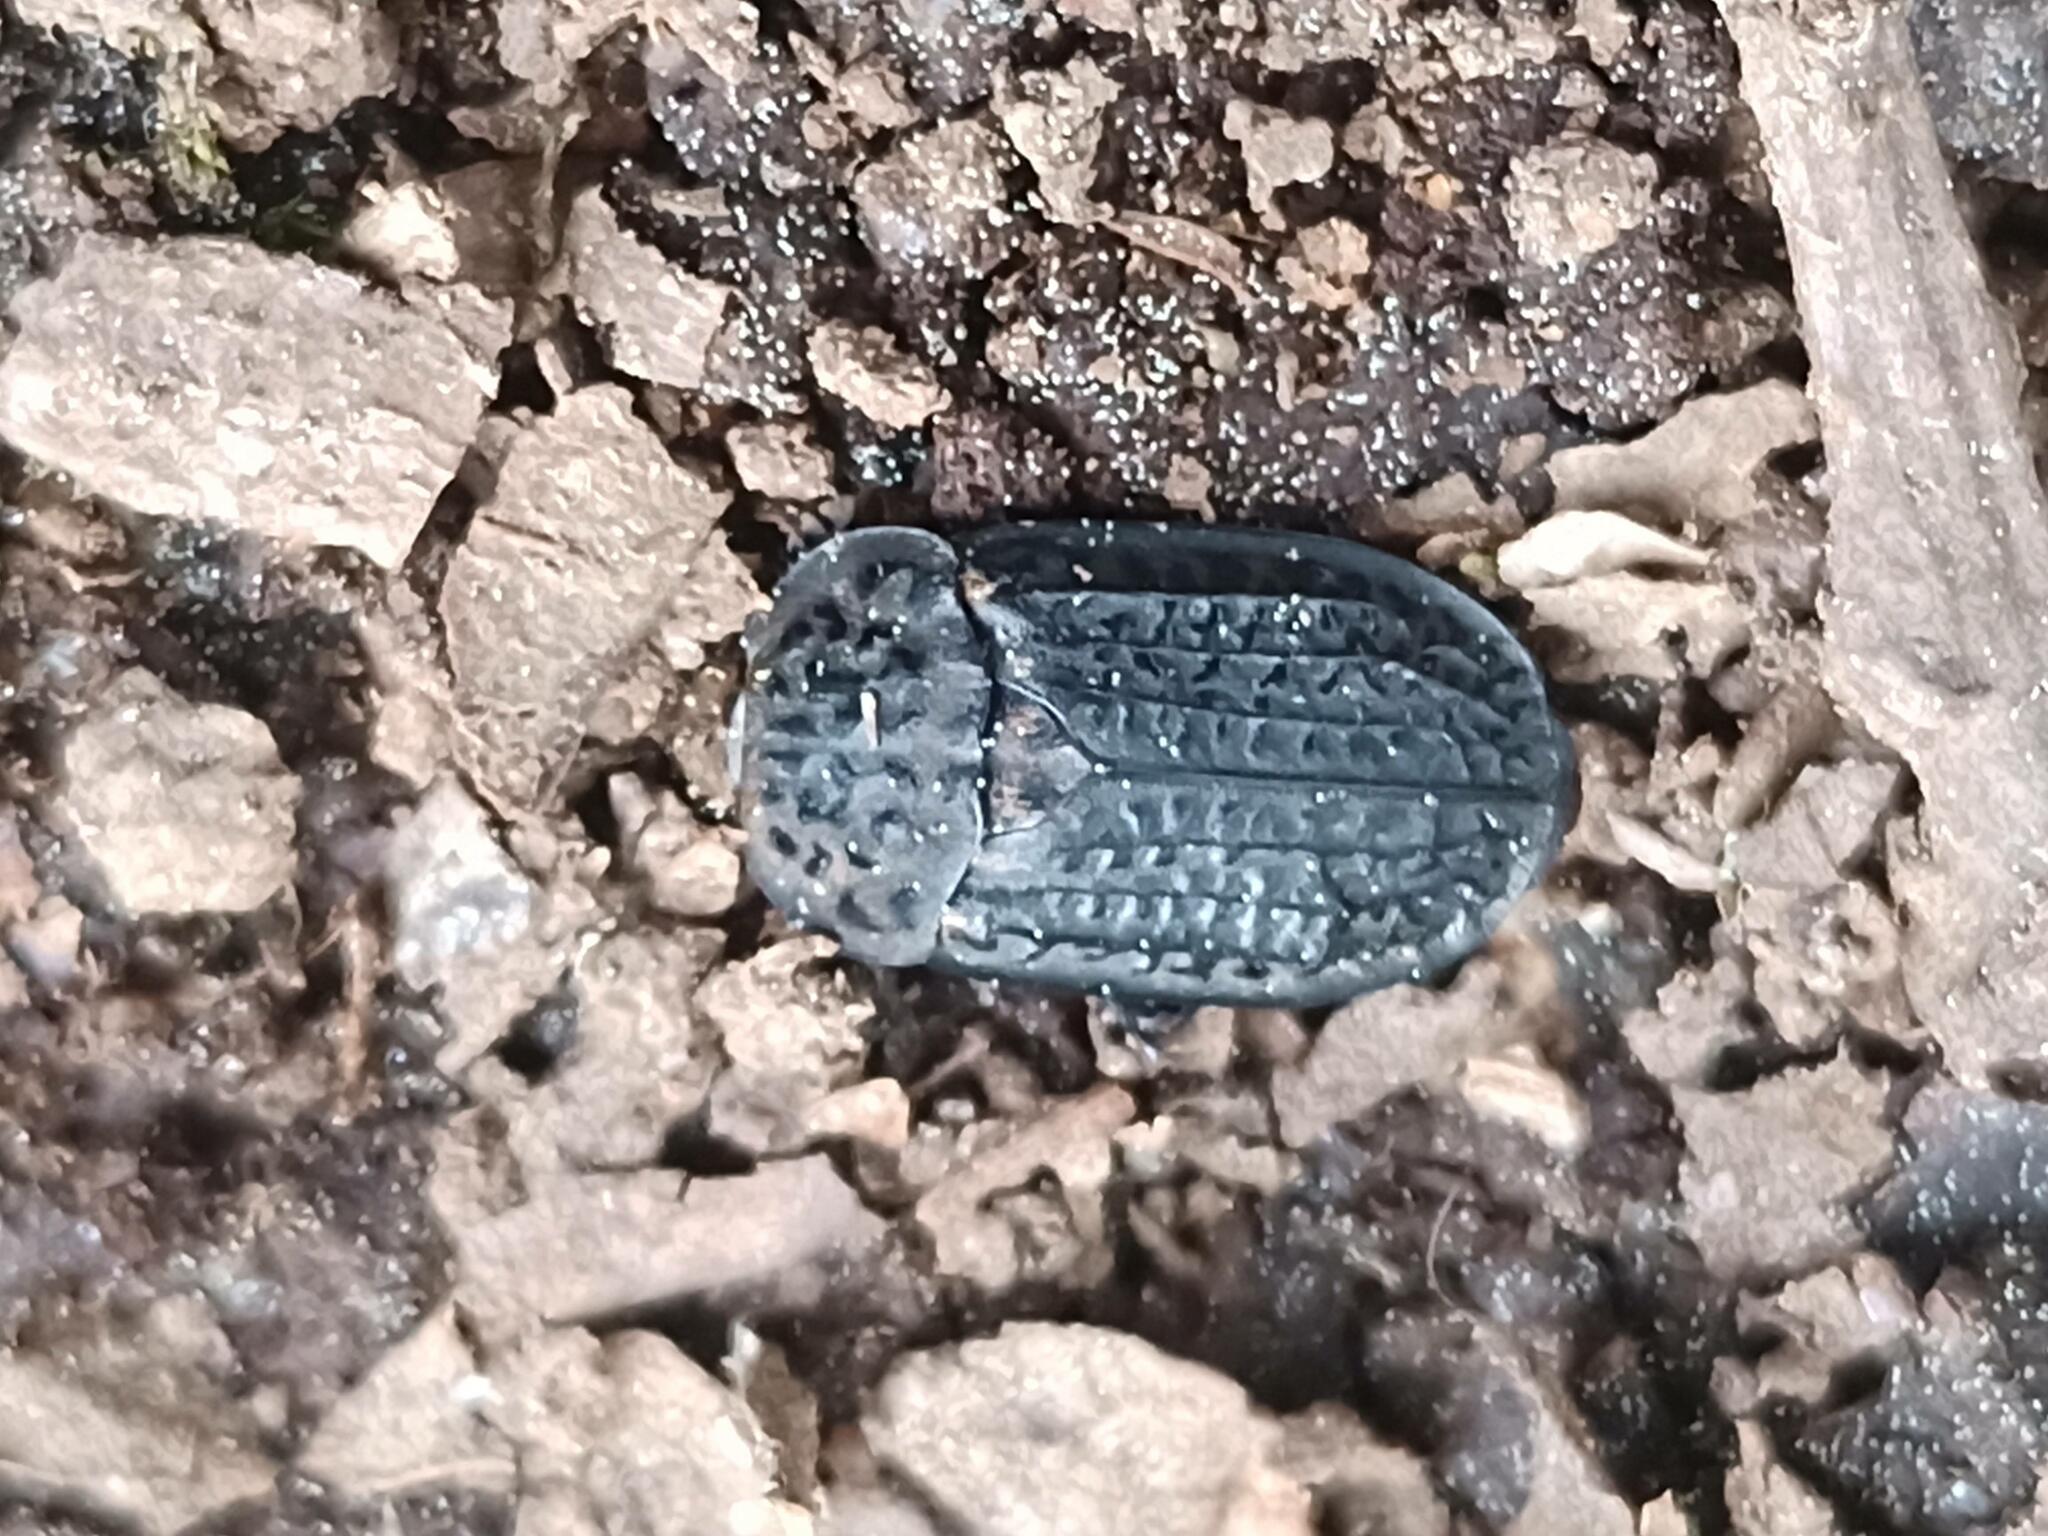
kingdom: Animalia
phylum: Arthropoda
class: Insecta
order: Coleoptera
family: Staphylinidae
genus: Thanatophilus
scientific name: Thanatophilus rugosus
